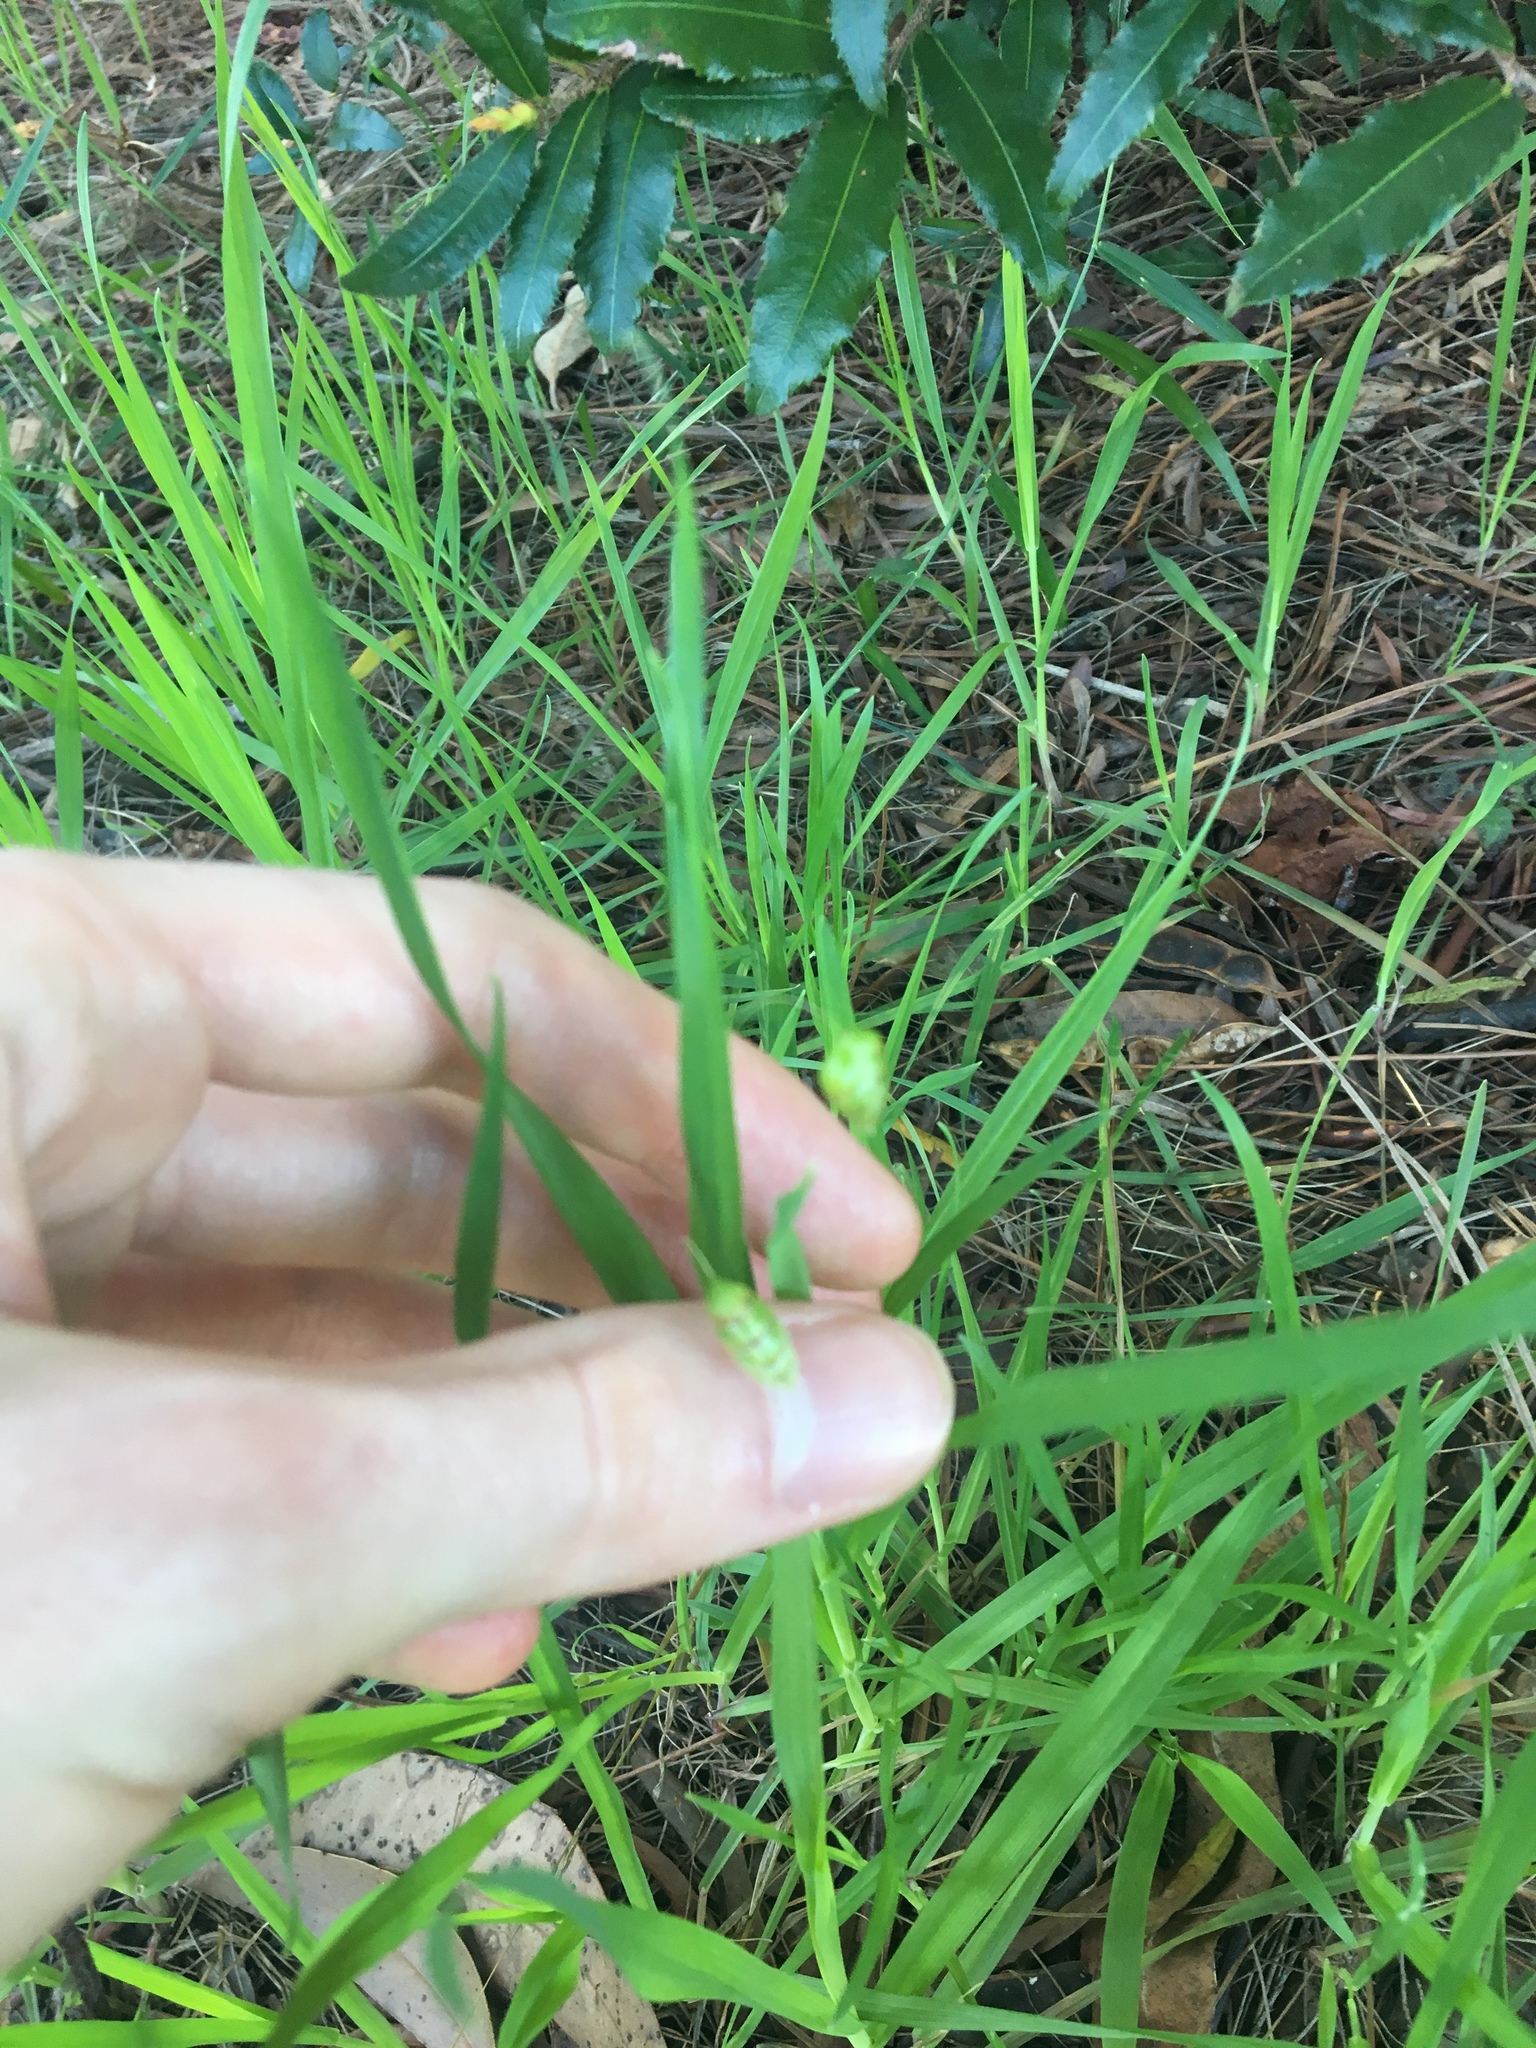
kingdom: Plantae
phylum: Tracheophyta
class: Liliopsida
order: Poales
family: Poaceae
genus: Briza
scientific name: Briza maxima
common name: Big quakinggrass
